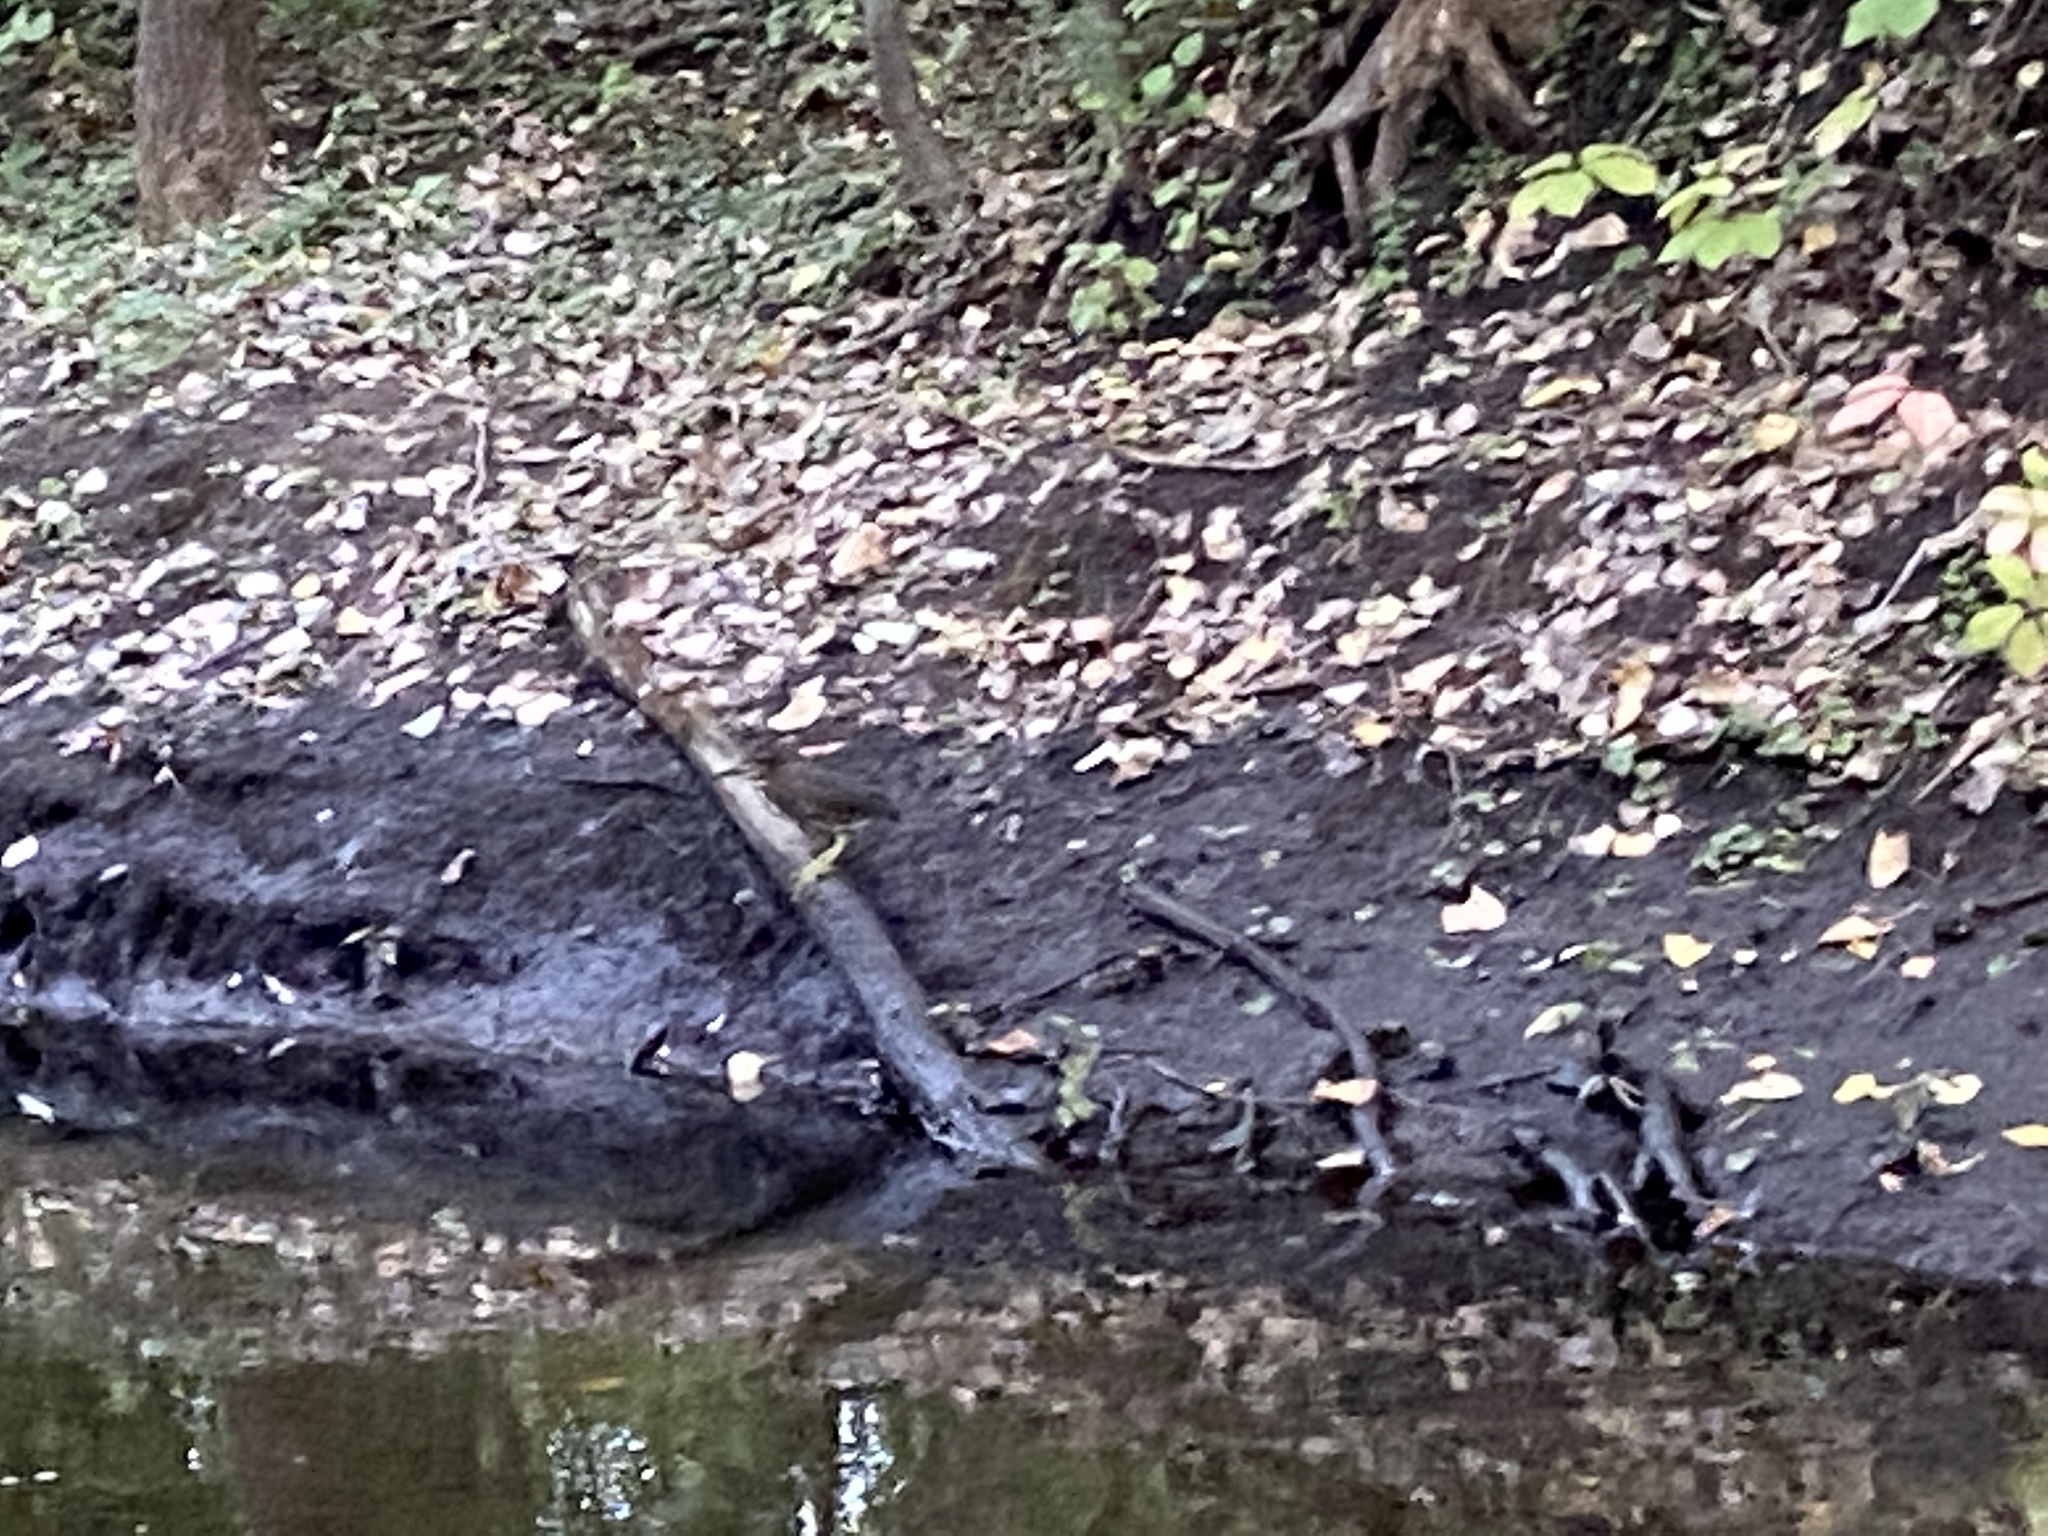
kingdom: Animalia
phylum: Chordata
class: Aves
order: Pelecaniformes
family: Ardeidae
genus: Butorides
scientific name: Butorides virescens
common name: Green heron
